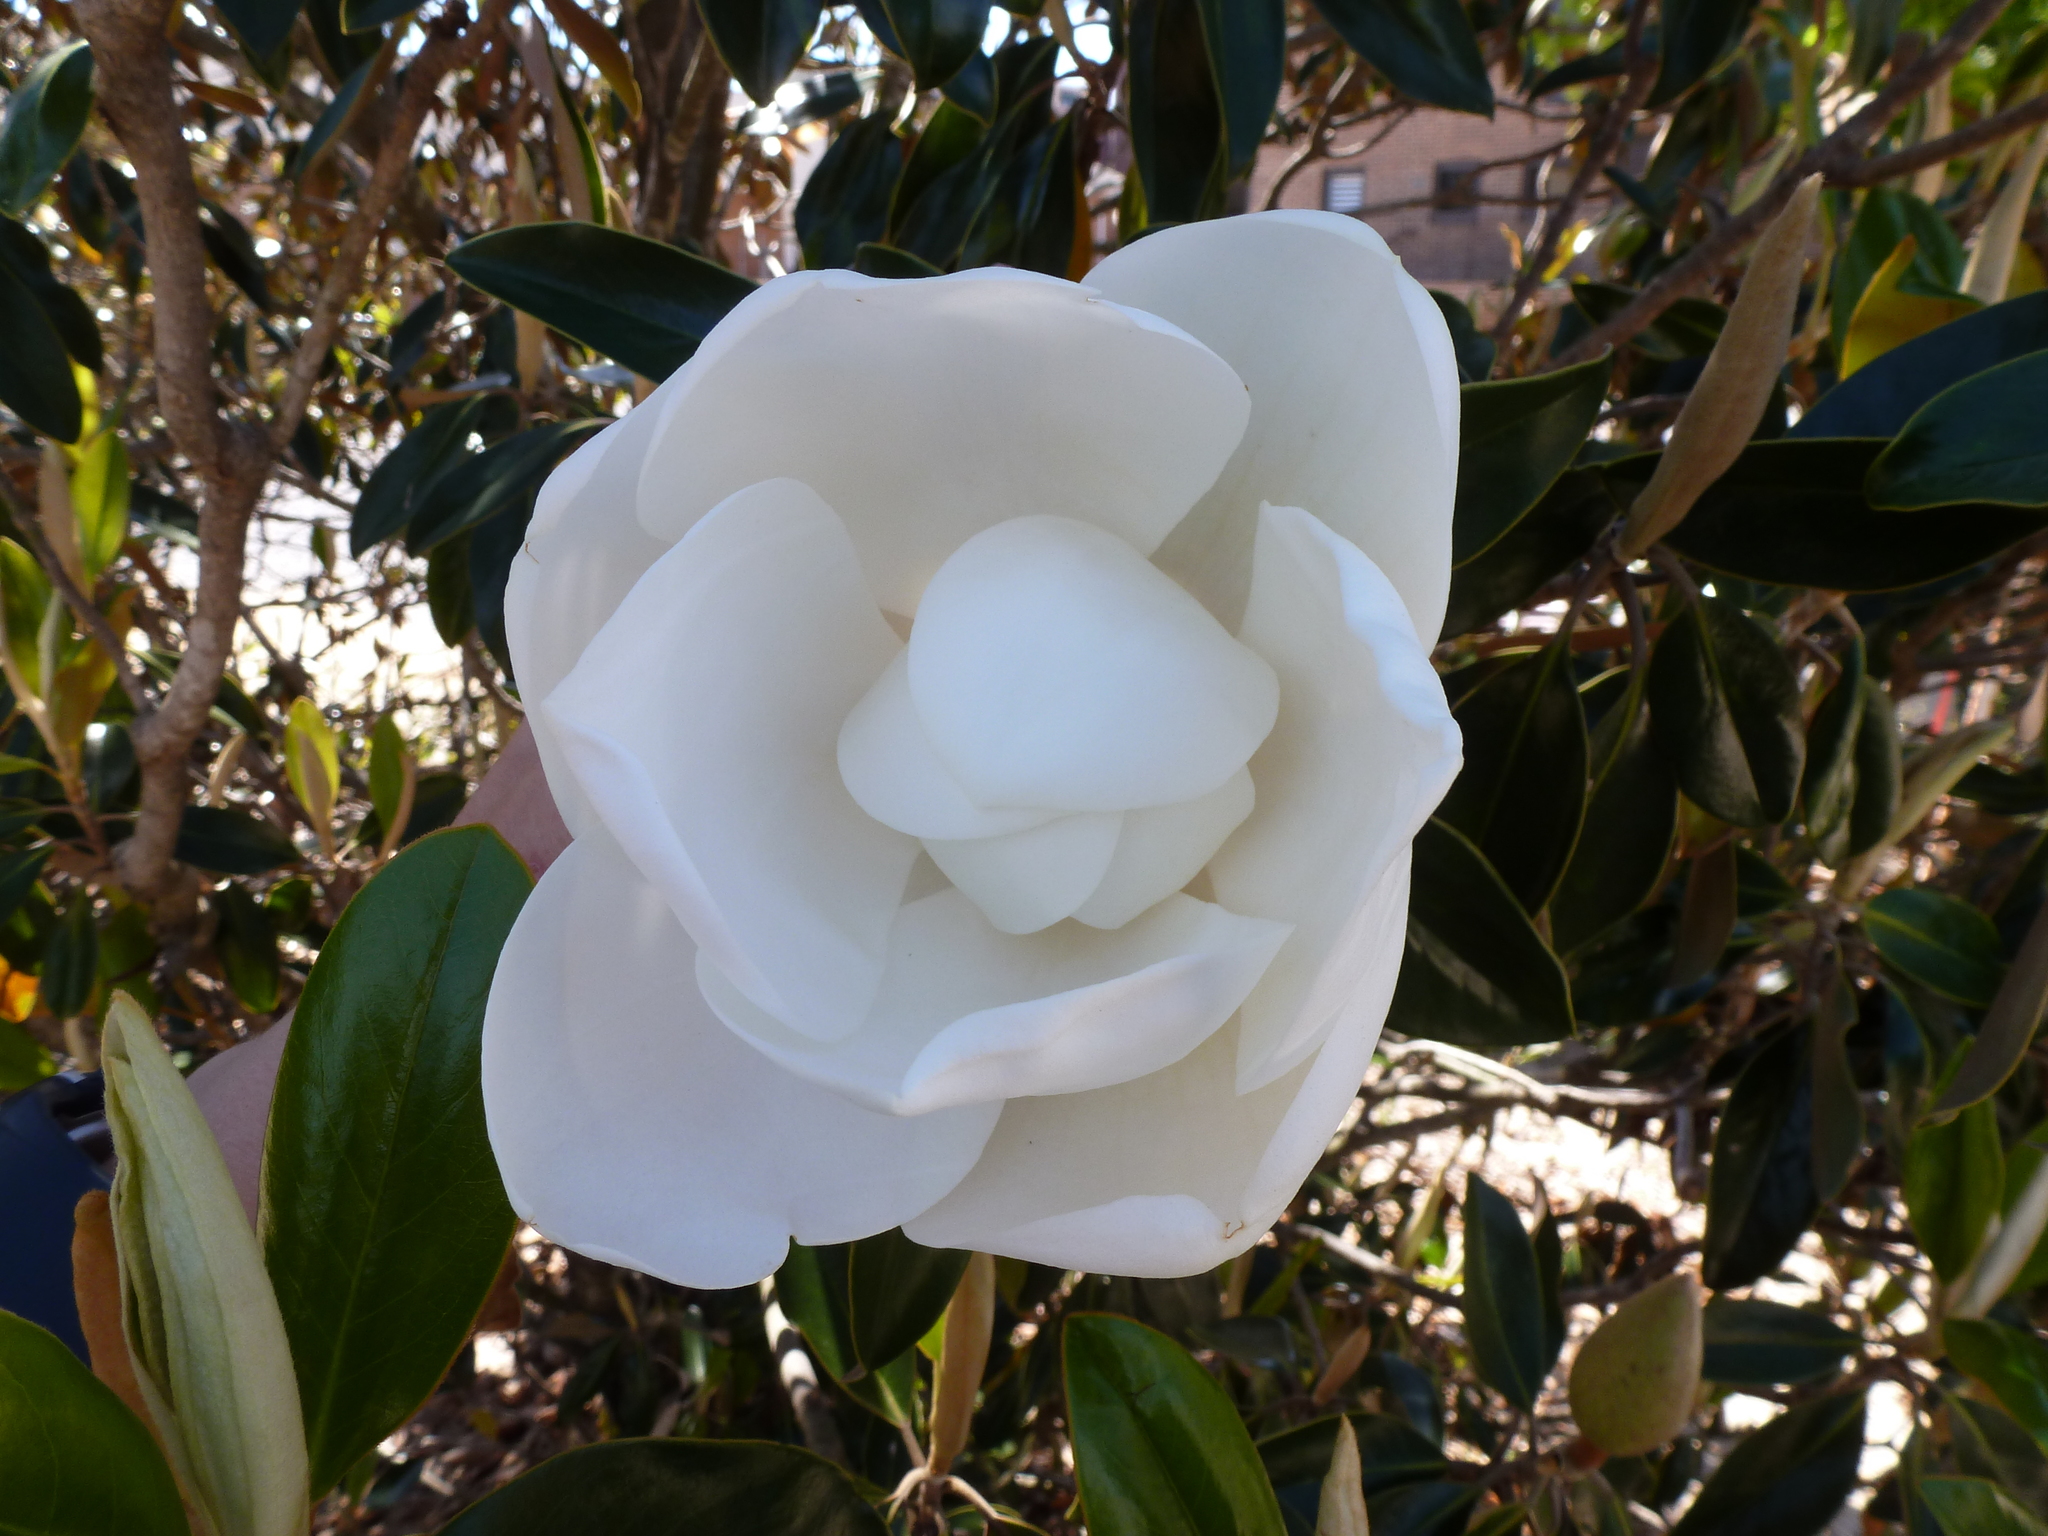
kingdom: Plantae
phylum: Tracheophyta
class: Magnoliopsida
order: Magnoliales
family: Magnoliaceae
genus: Magnolia
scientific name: Magnolia grandiflora
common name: Southern magnolia
